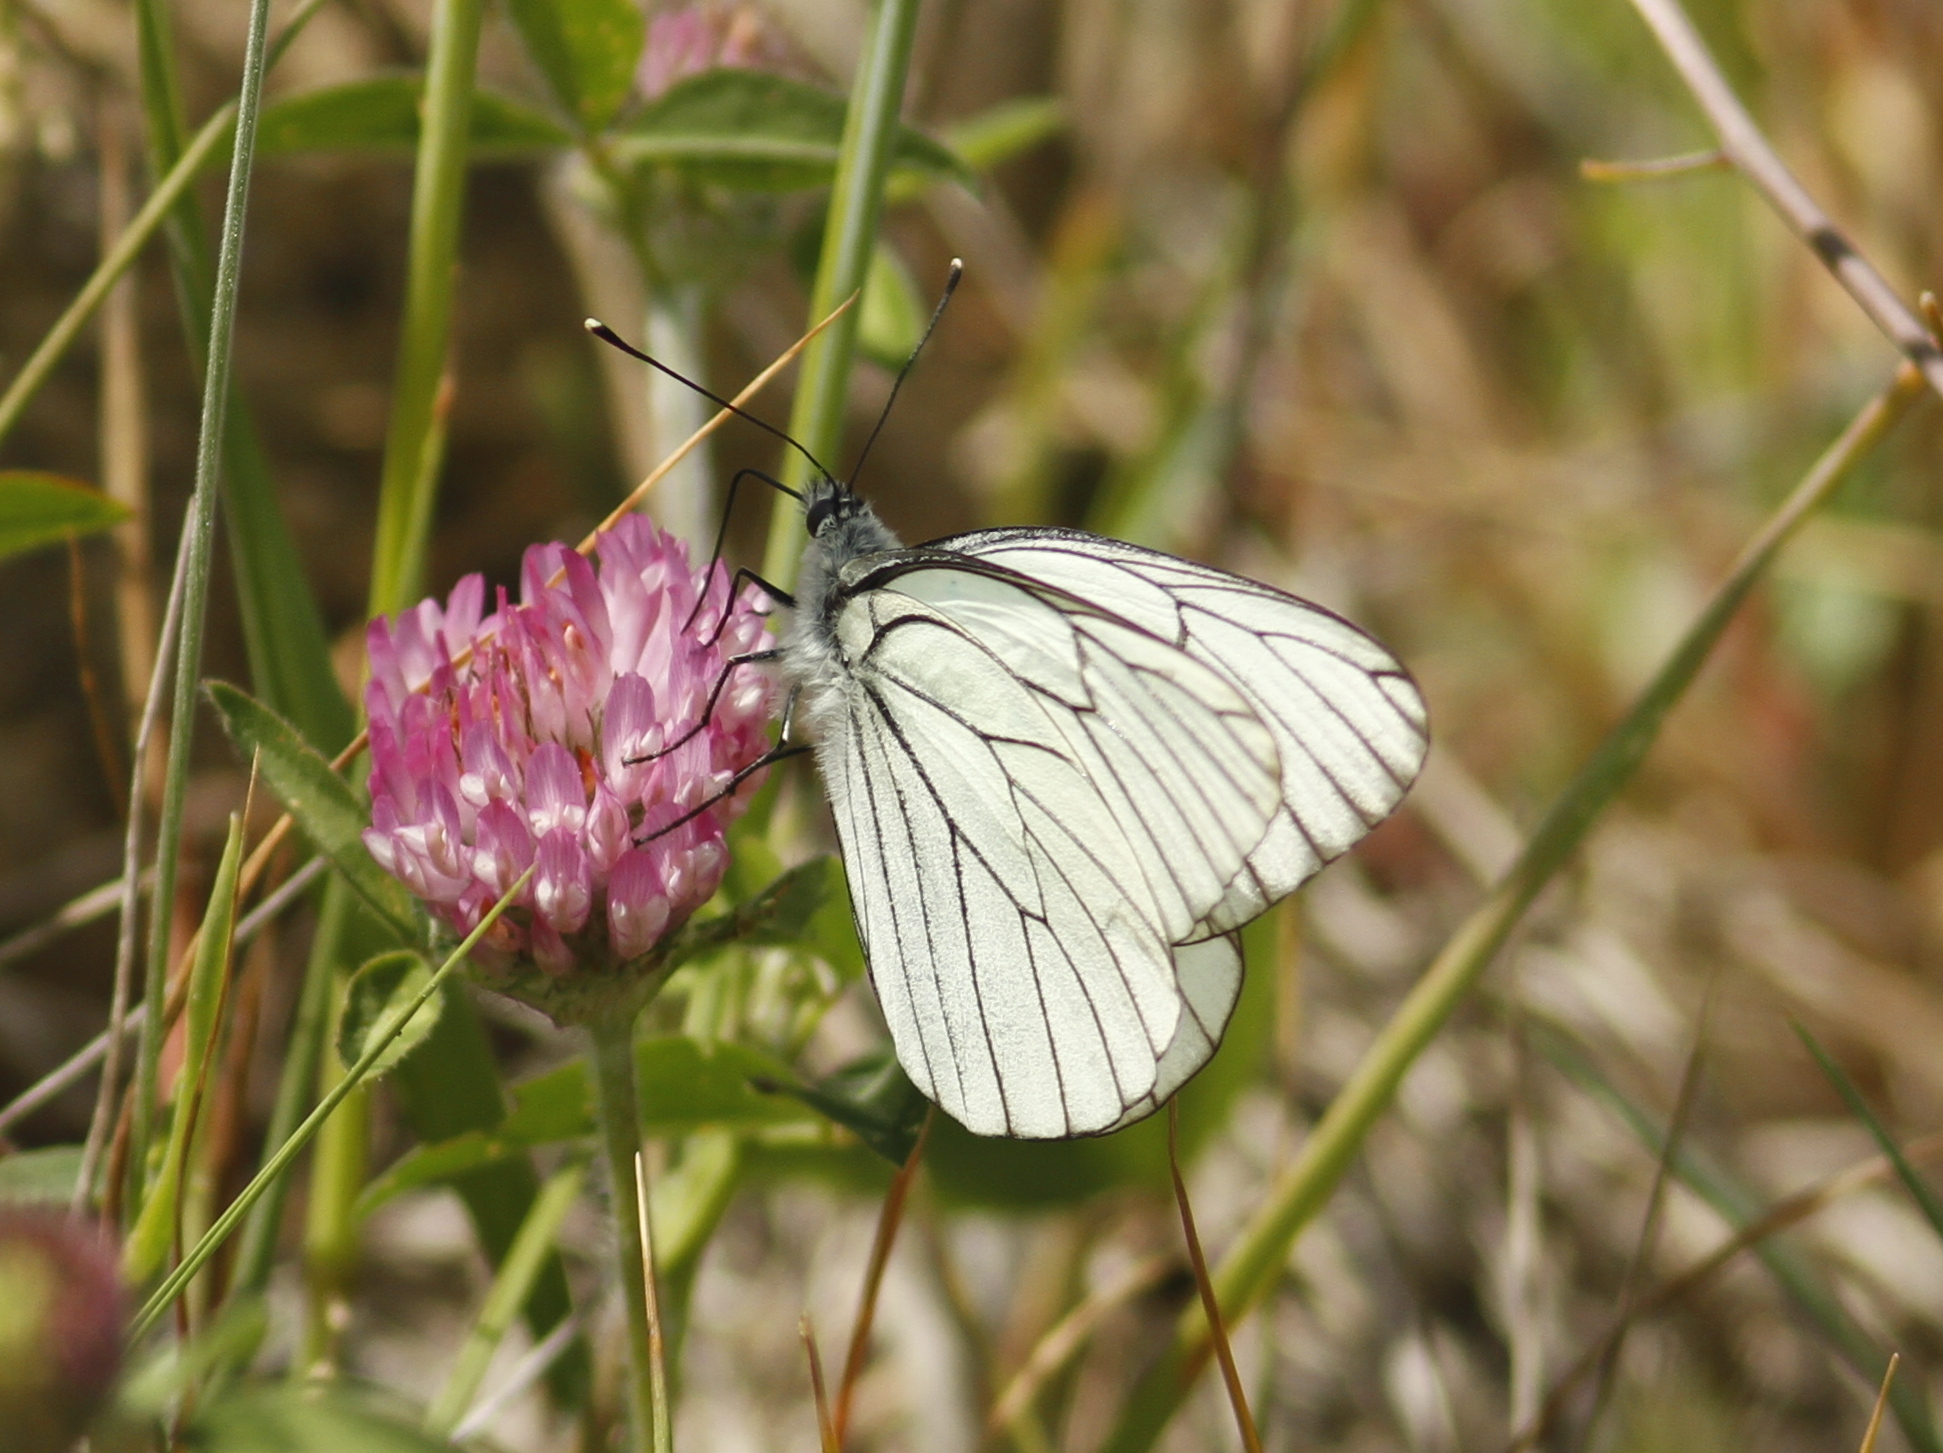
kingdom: Animalia
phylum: Arthropoda
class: Insecta
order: Lepidoptera
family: Pieridae
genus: Aporia
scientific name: Aporia crataegi
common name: Black-veined white
